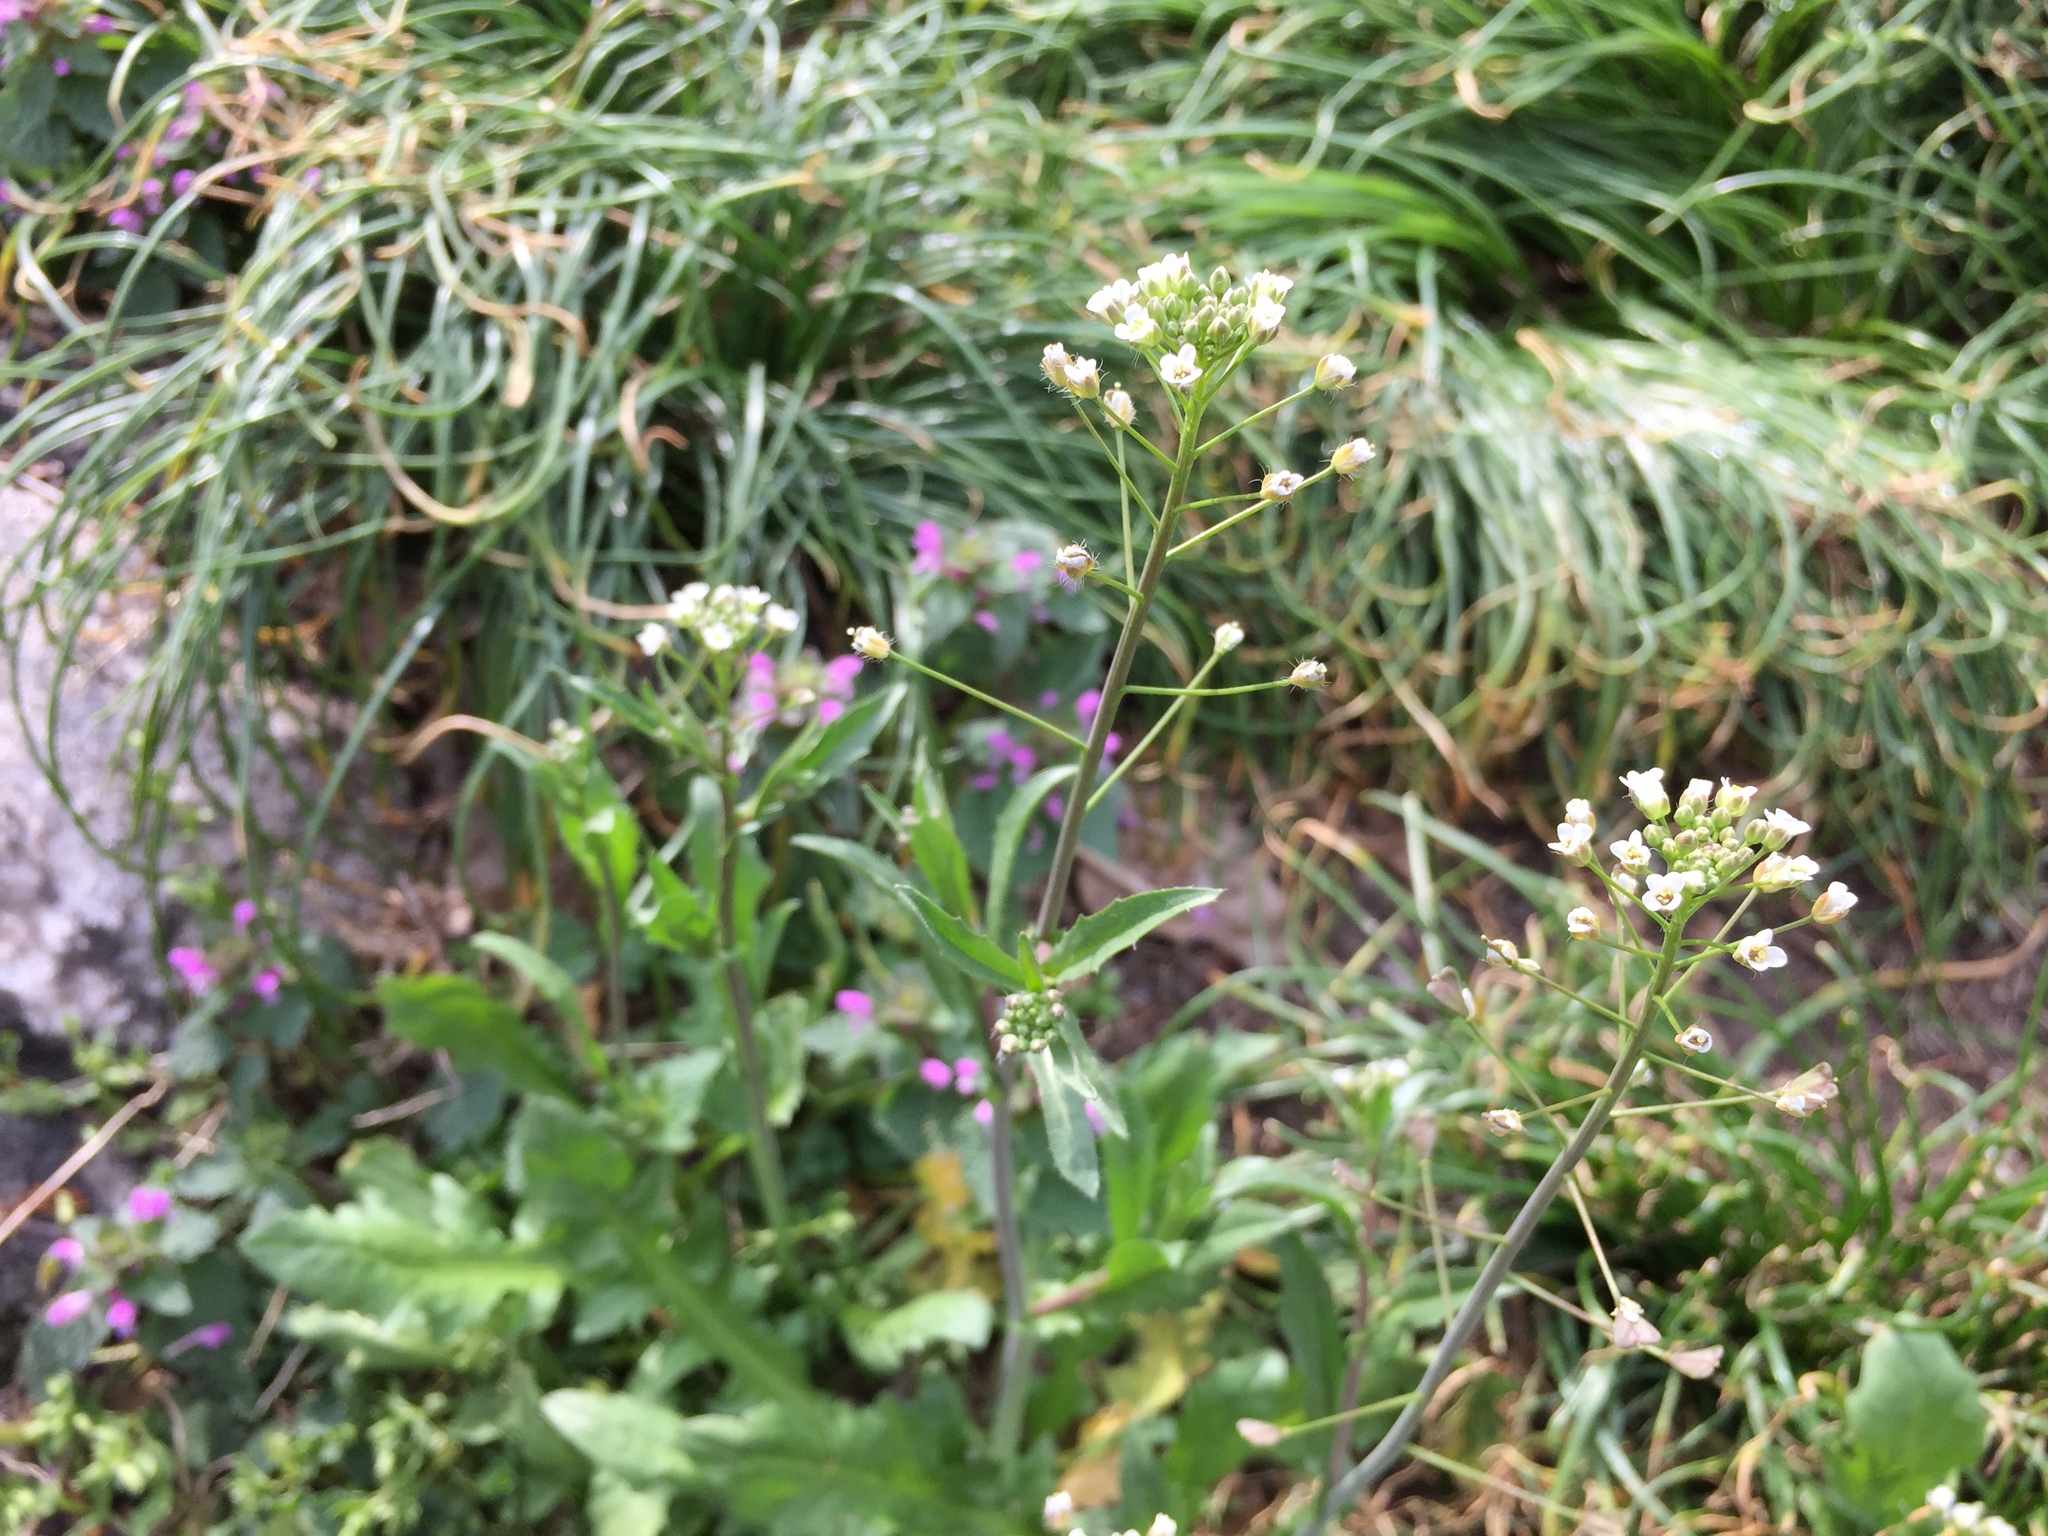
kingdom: Plantae
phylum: Tracheophyta
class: Magnoliopsida
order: Brassicales
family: Brassicaceae
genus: Capsella
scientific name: Capsella bursa-pastoris
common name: Shepherd's purse
